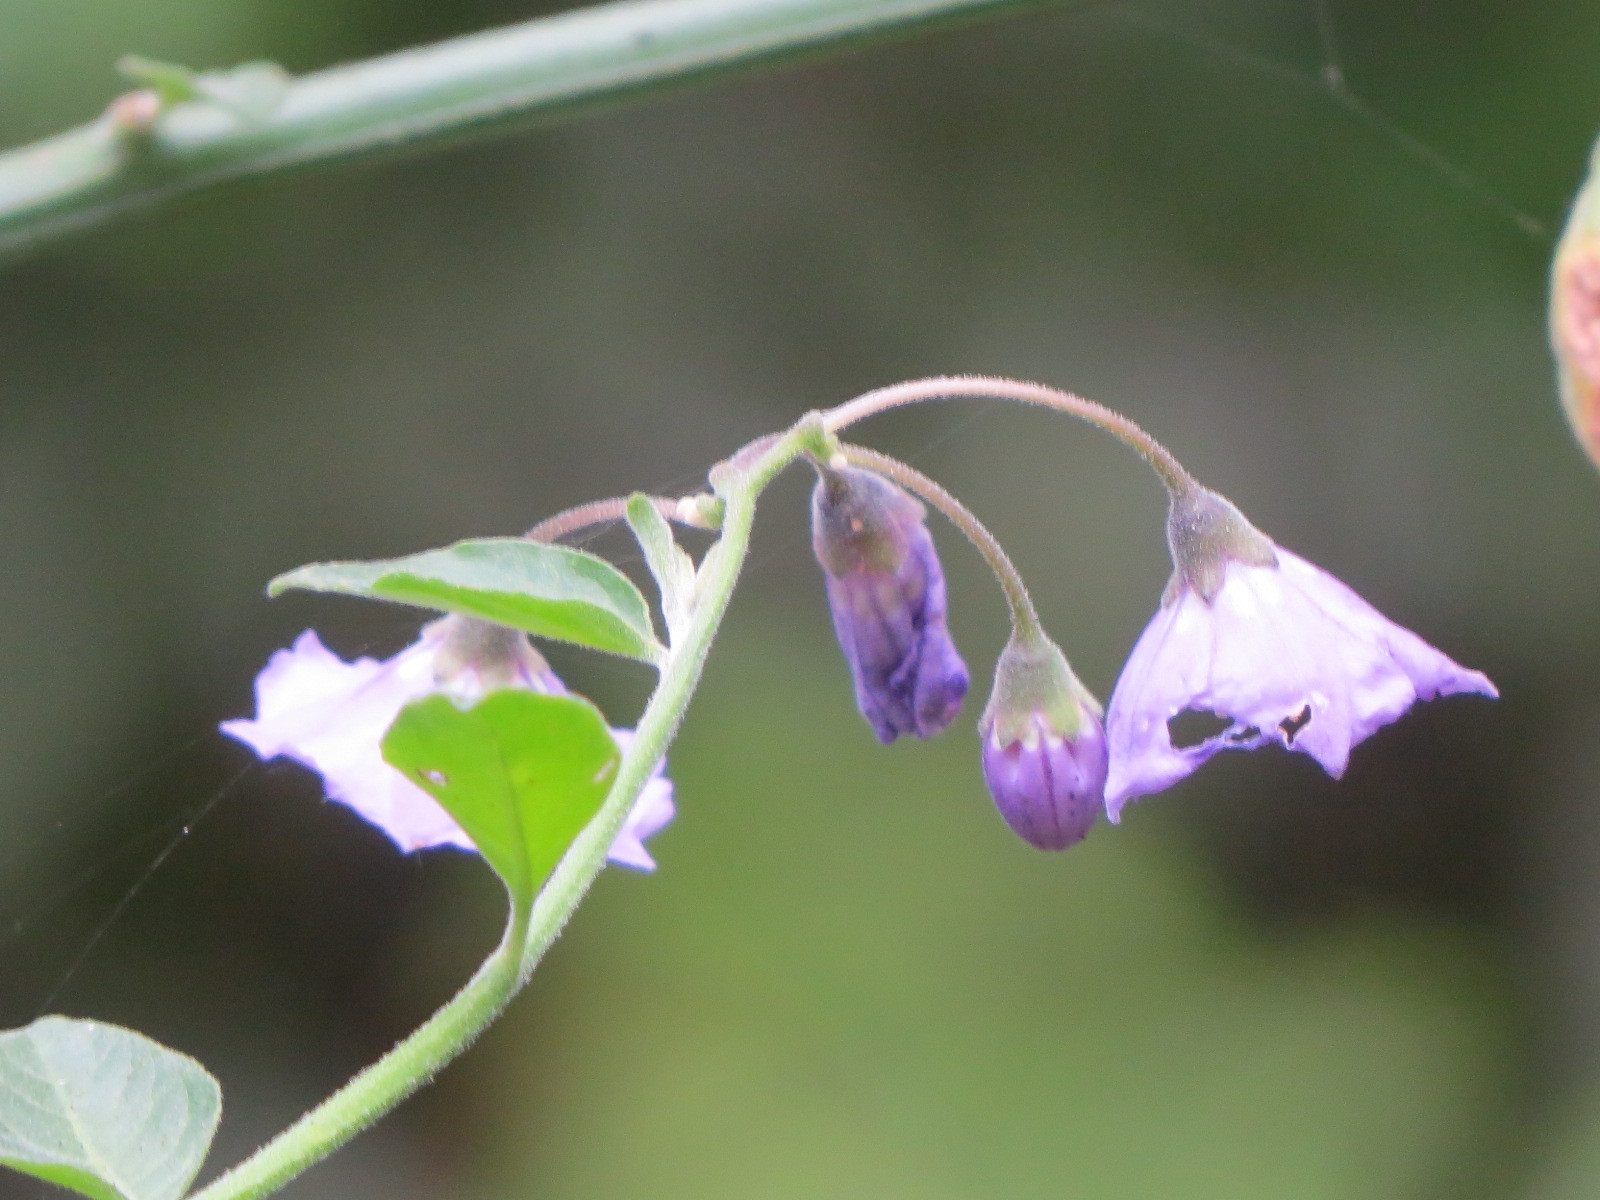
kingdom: Plantae
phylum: Tracheophyta
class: Magnoliopsida
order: Solanales
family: Solanaceae
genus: Solanum
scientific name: Solanum umbelliferum
